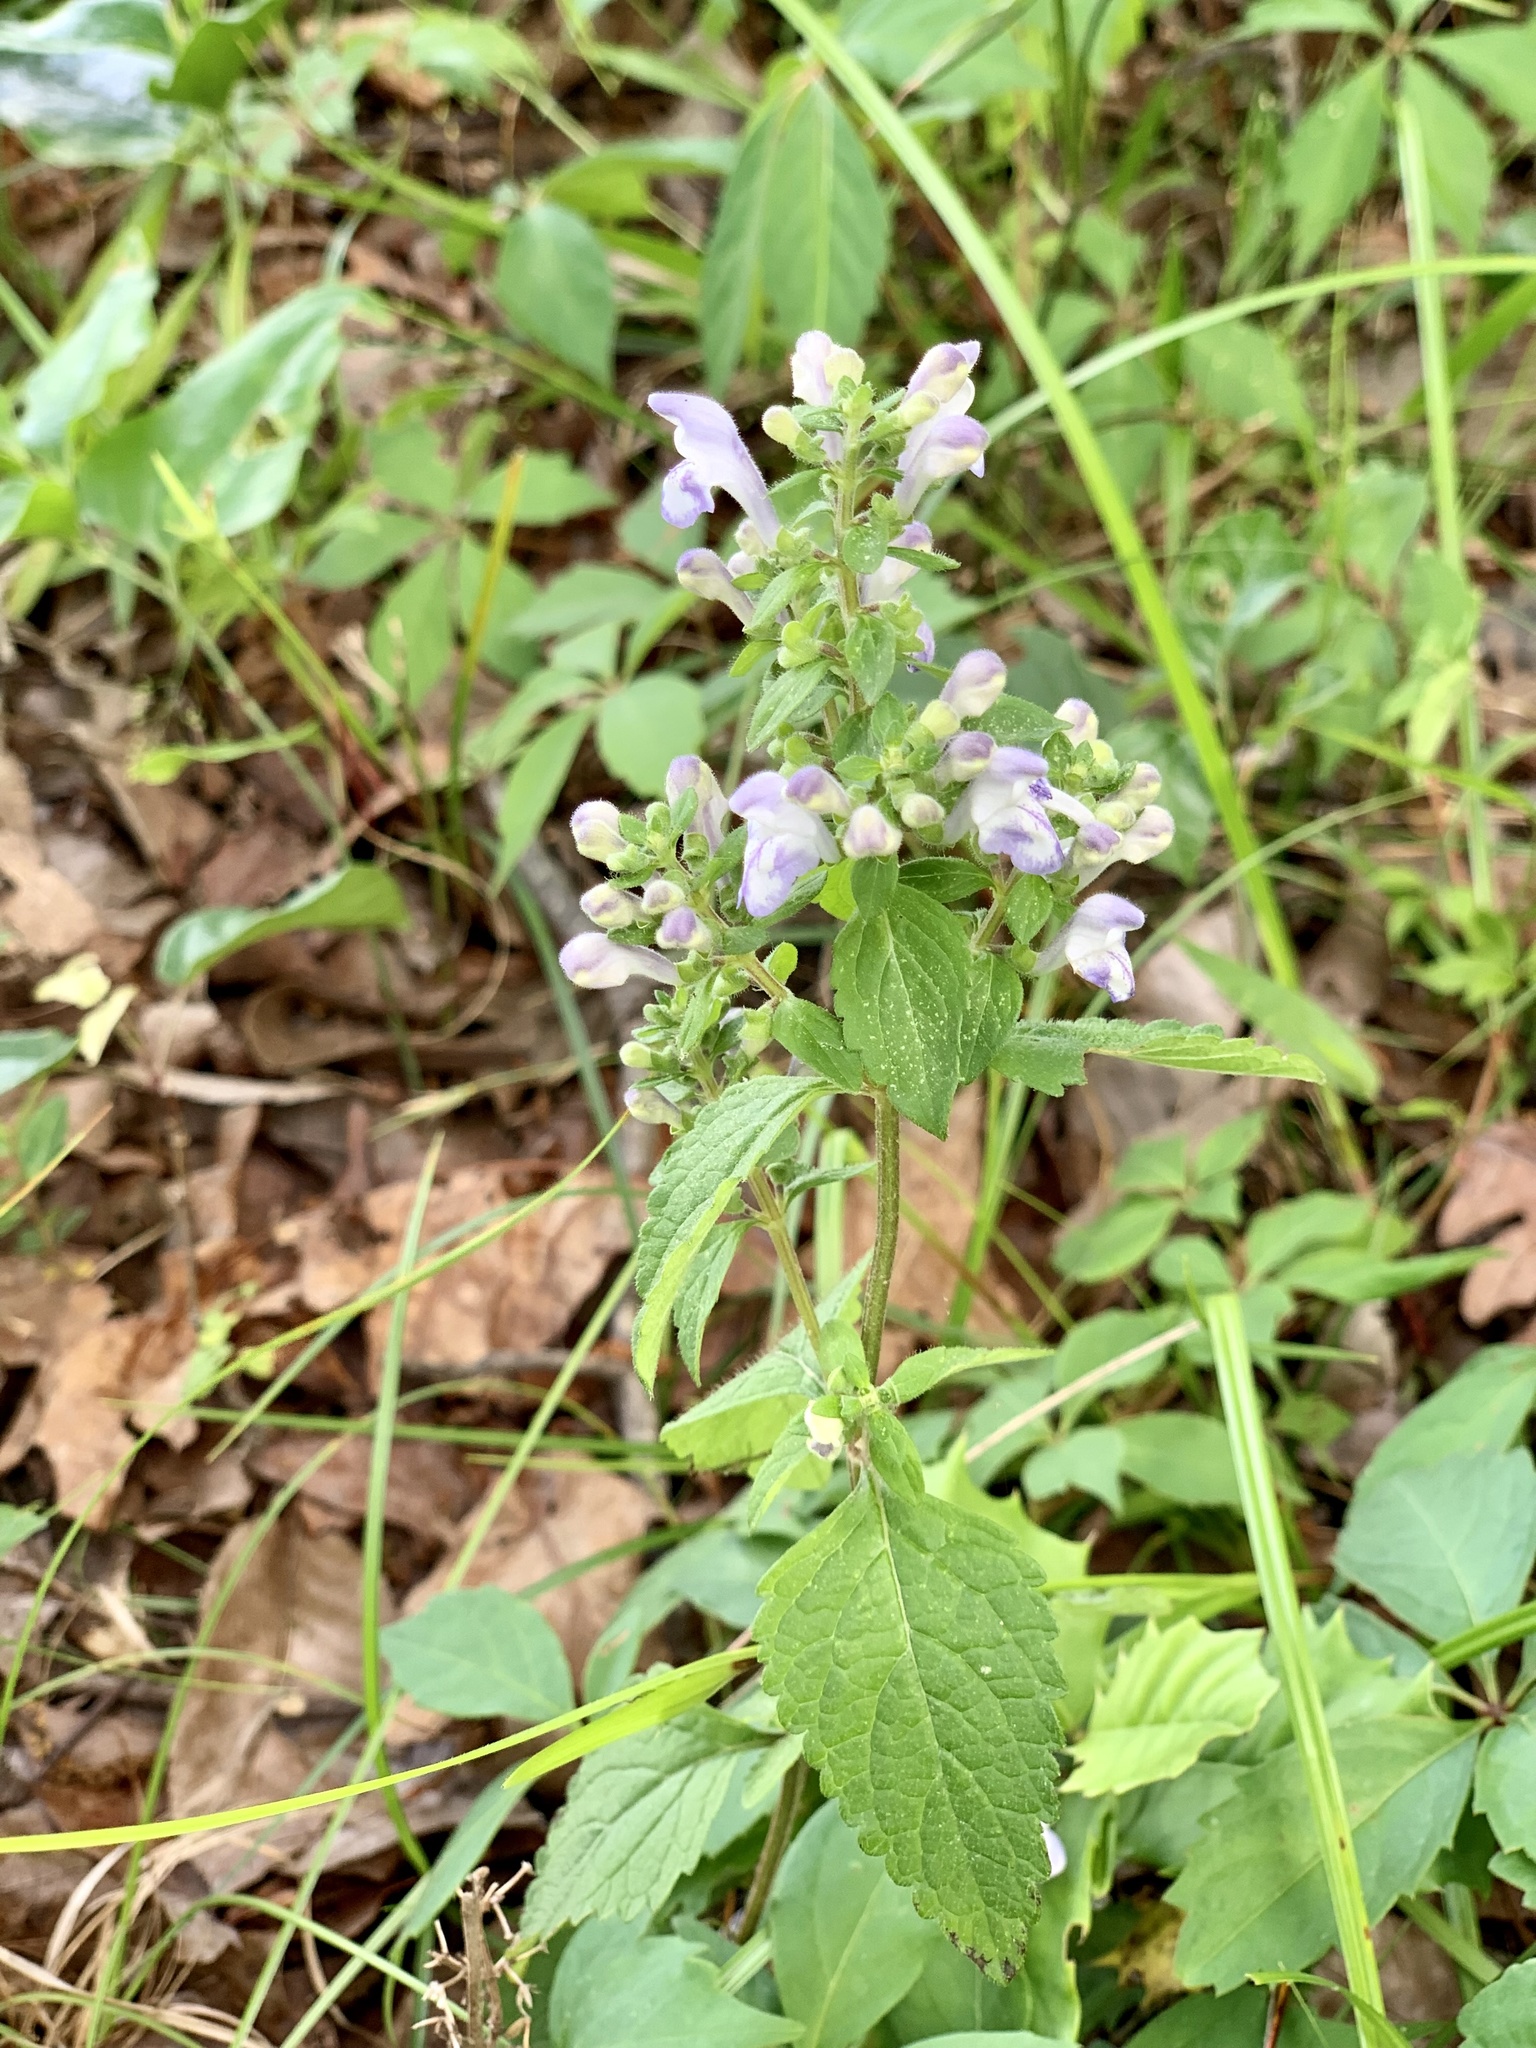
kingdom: Plantae
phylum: Tracheophyta
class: Magnoliopsida
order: Lamiales
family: Lamiaceae
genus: Scutellaria
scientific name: Scutellaria elliptica
